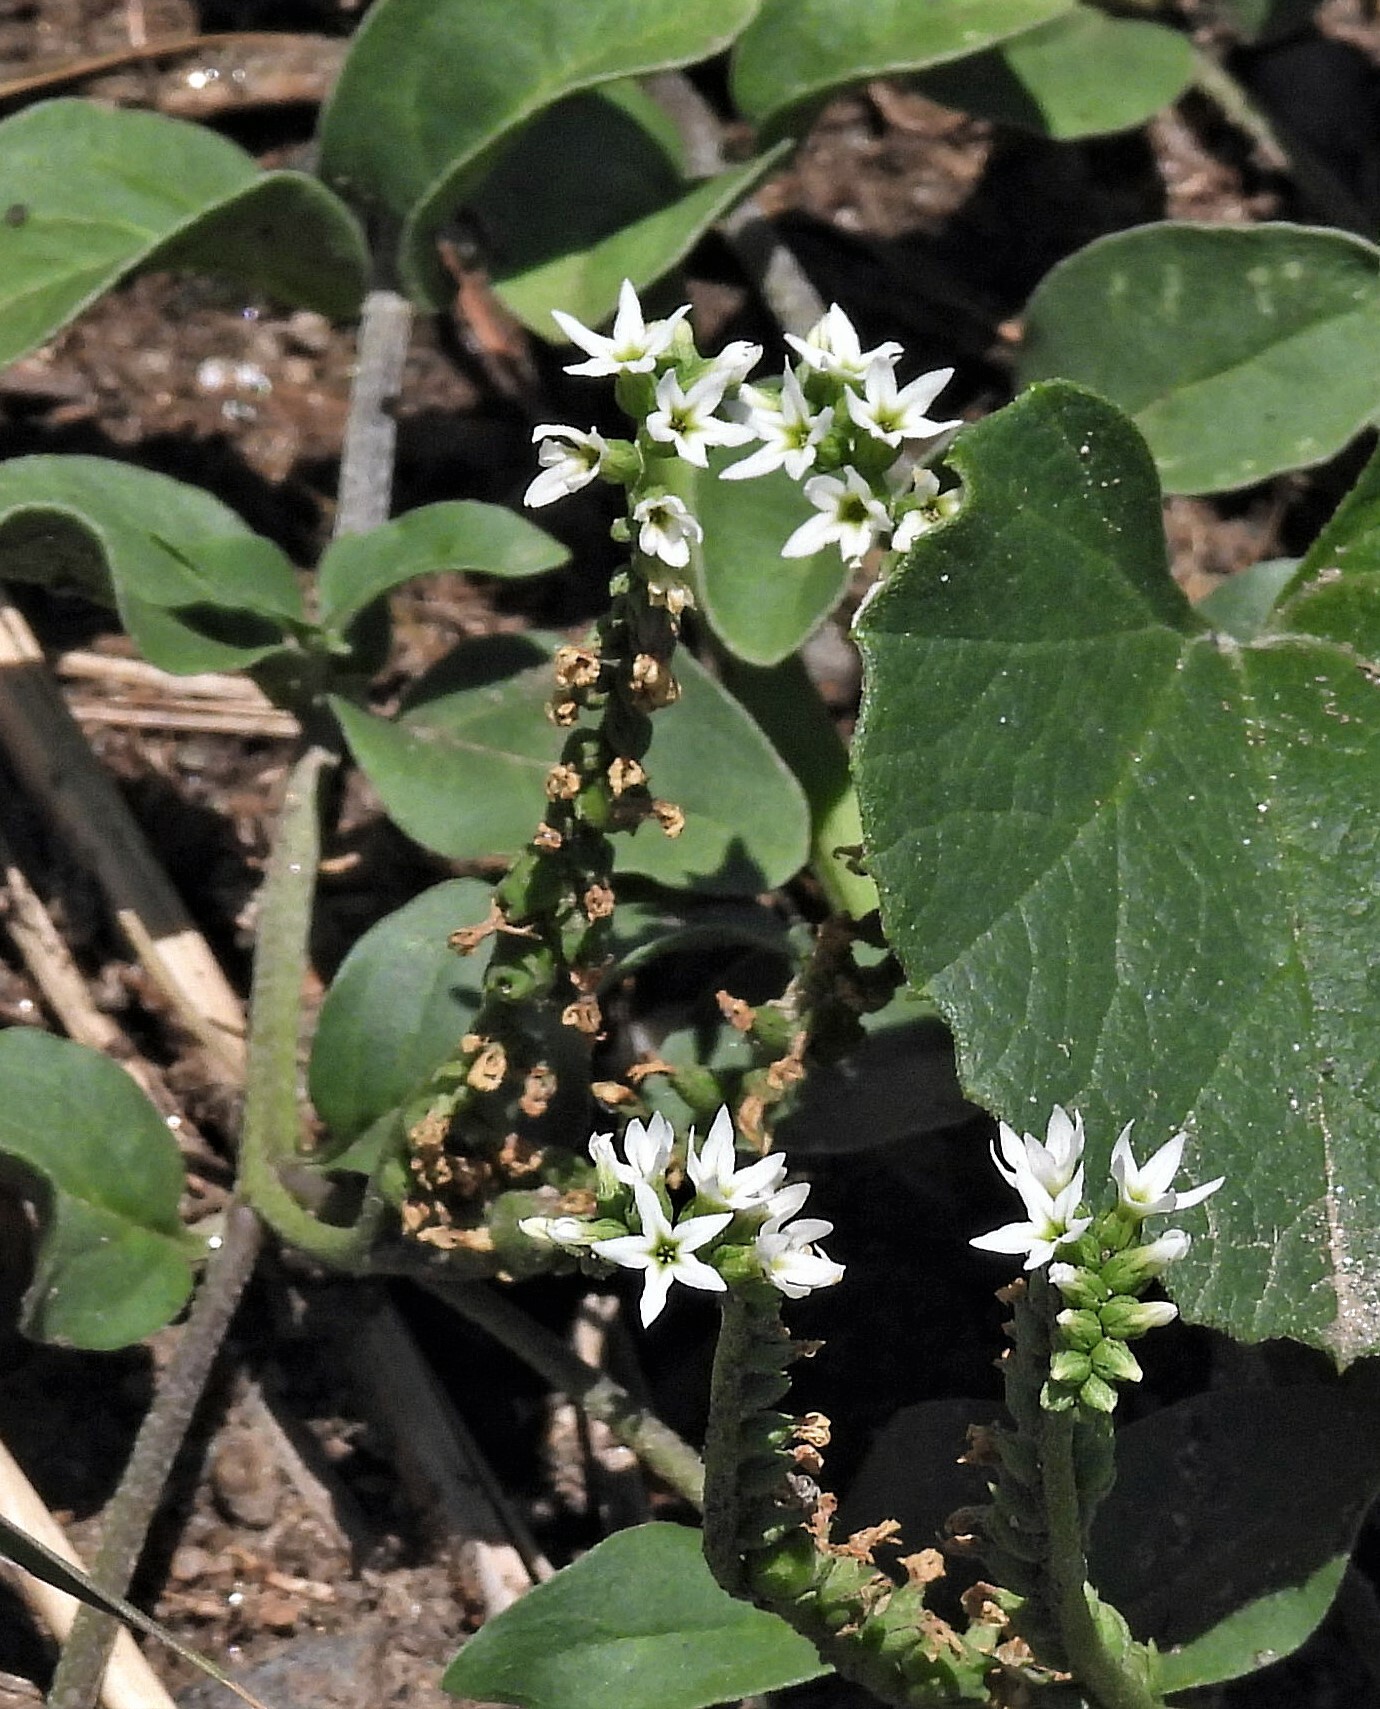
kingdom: Plantae
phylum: Tracheophyta
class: Magnoliopsida
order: Boraginales
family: Heliotropiaceae
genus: Euploca
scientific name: Euploca procumbens
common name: Fourspike heliotrope
